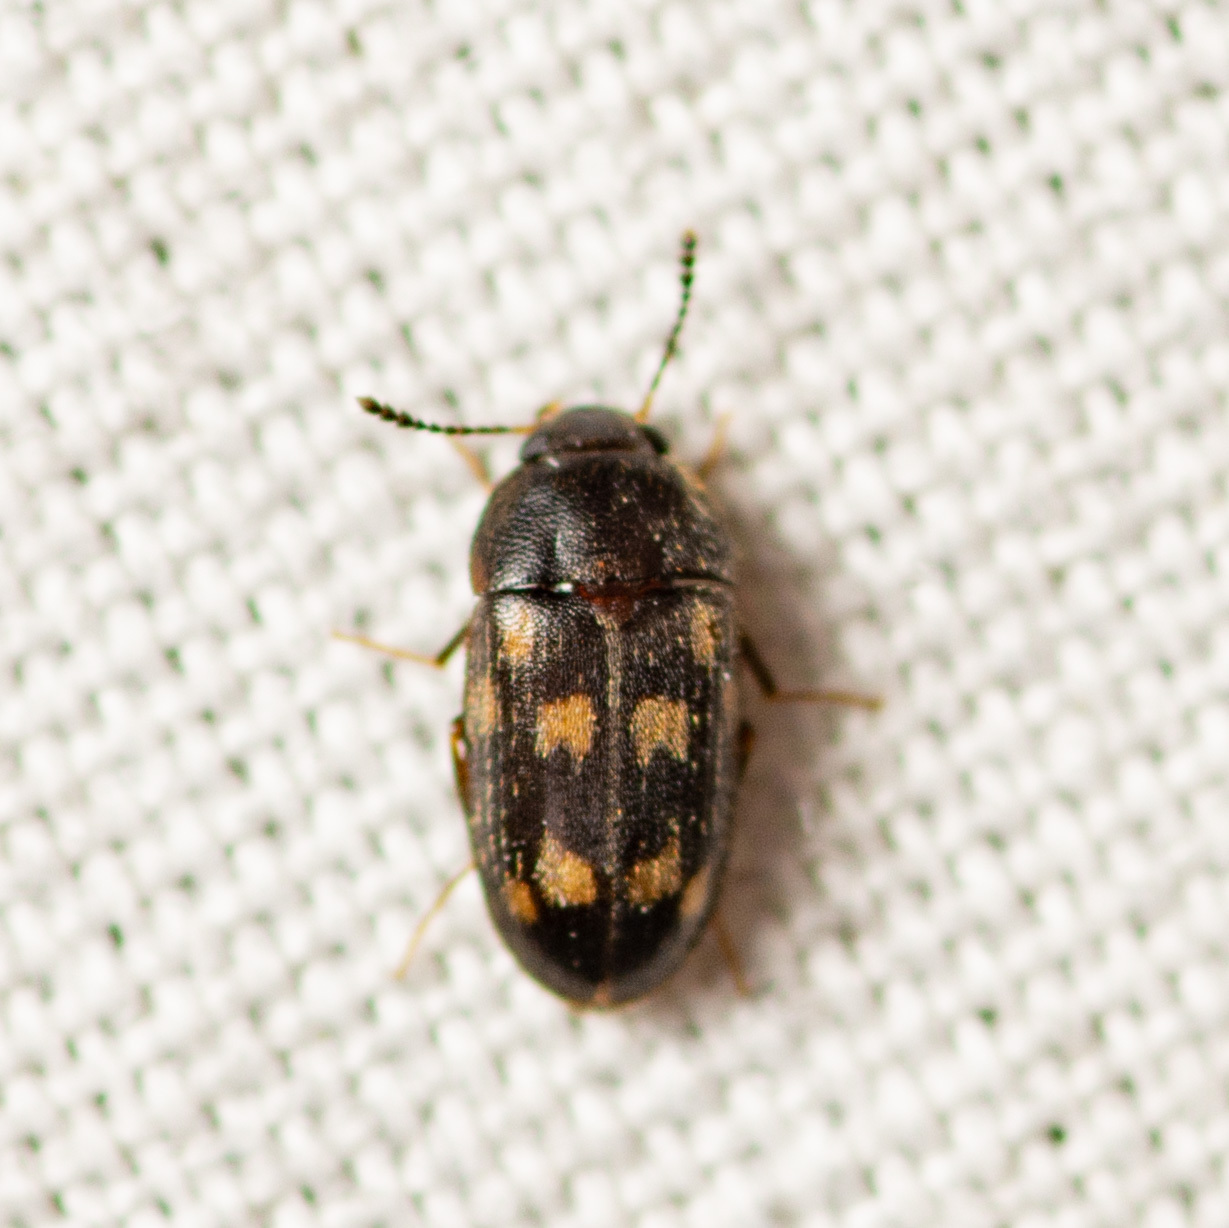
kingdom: Animalia
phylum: Arthropoda
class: Insecta
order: Coleoptera
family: Mycetophagidae
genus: Litargus
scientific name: Litargus sexpunctatus
